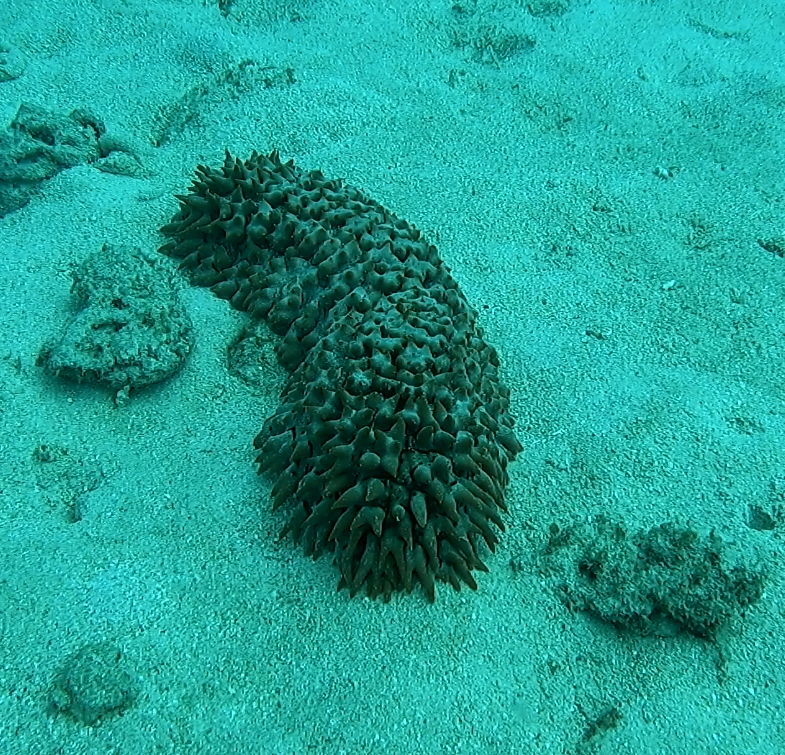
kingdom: Animalia
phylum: Echinodermata
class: Holothuroidea
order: Synallactida
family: Stichopodidae
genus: Thelenota
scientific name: Thelenota ananas
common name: Prickly redfish
